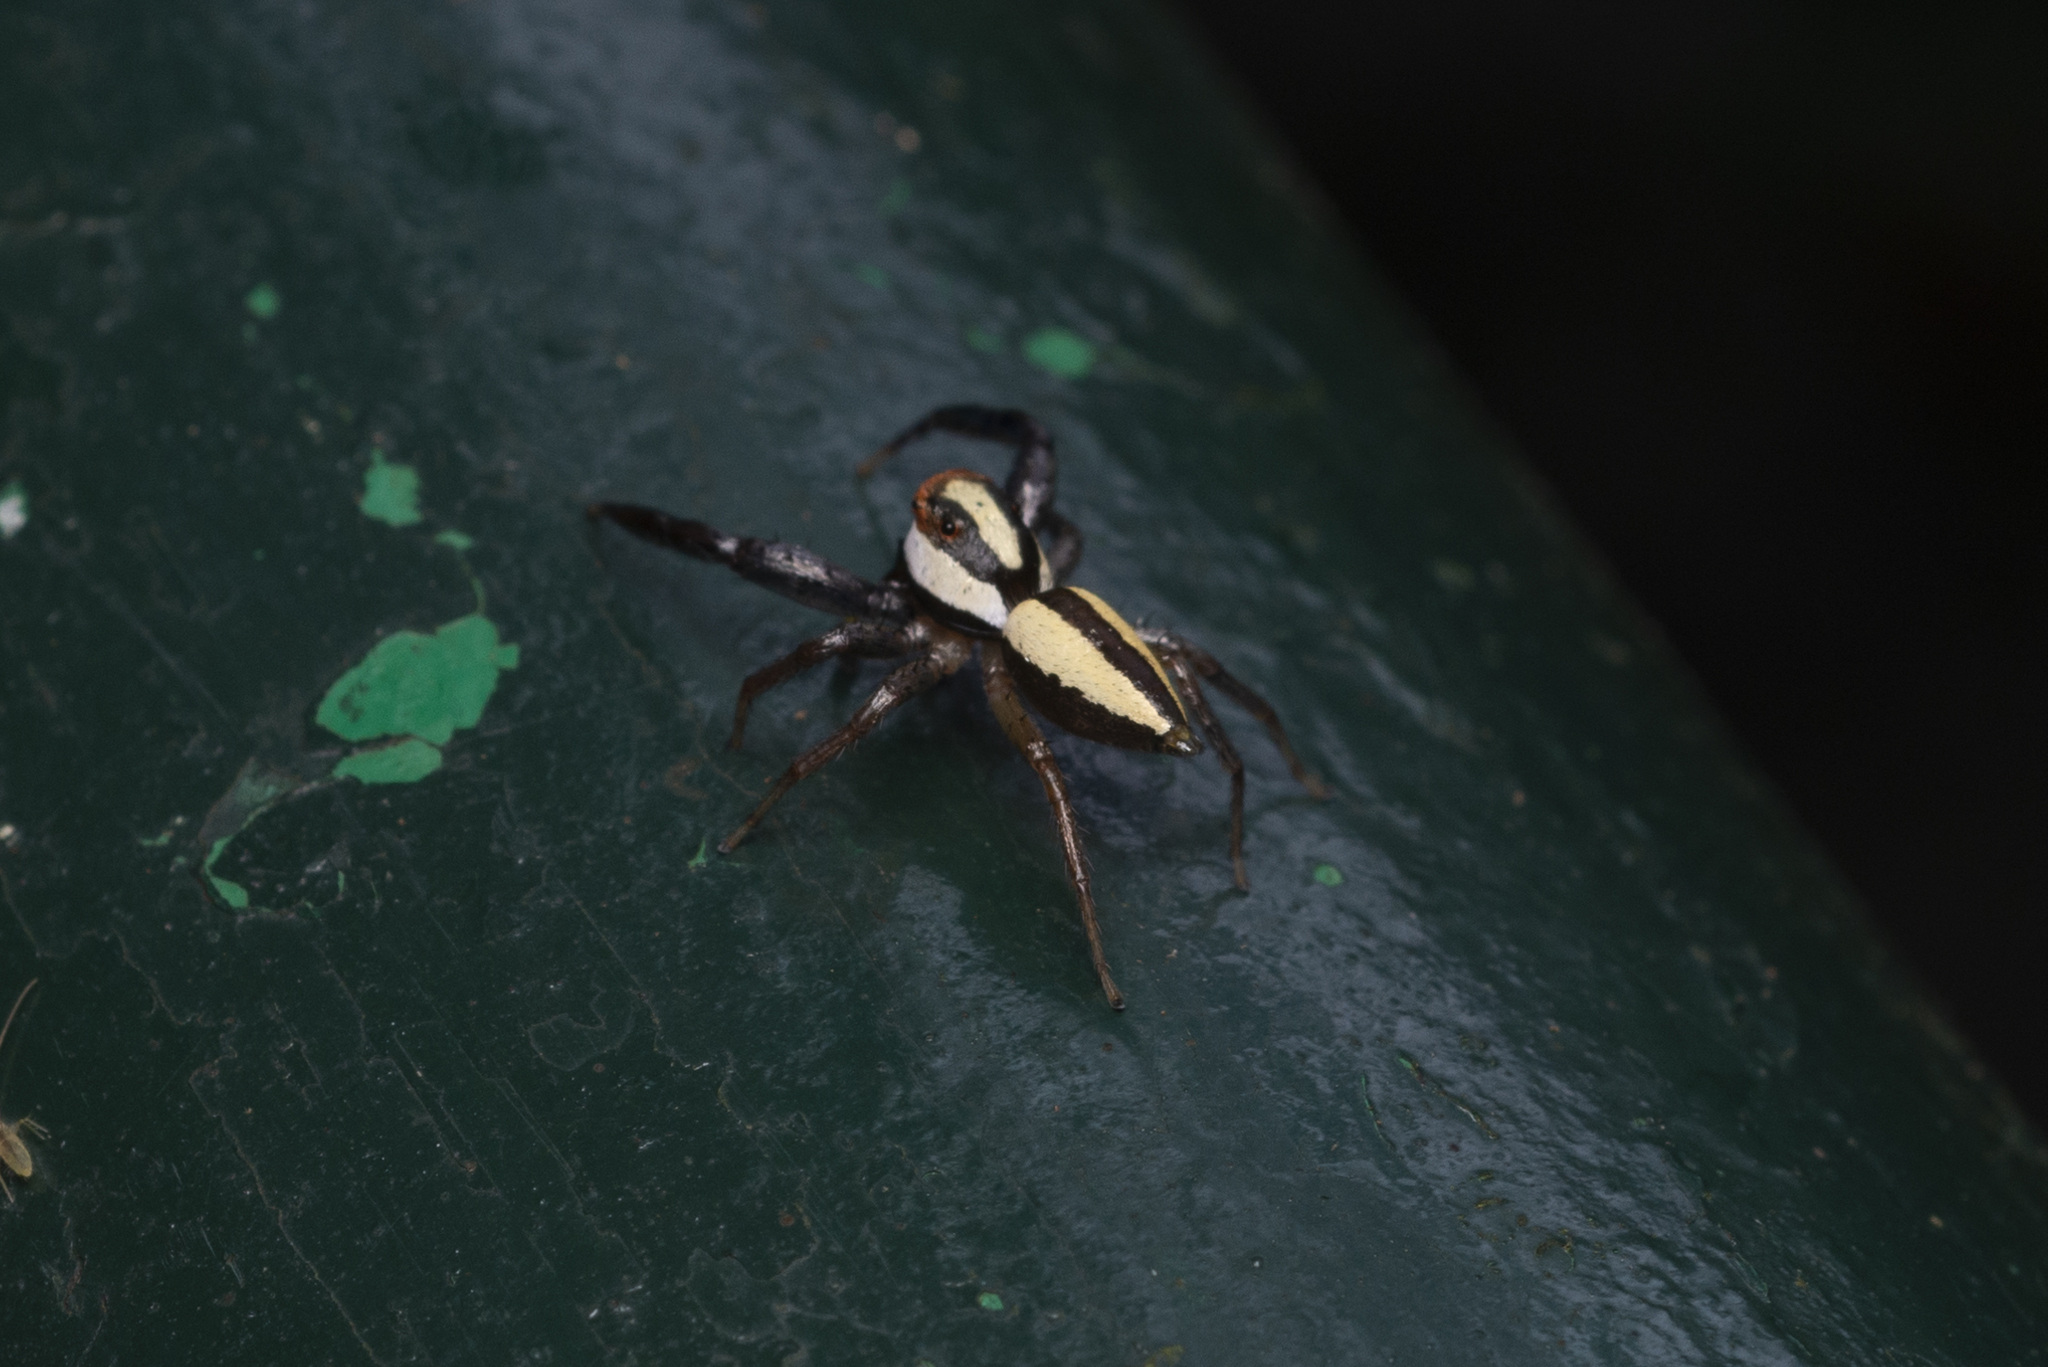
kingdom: Animalia
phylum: Arthropoda
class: Arachnida
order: Araneae
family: Salticidae
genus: Epocilla
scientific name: Epocilla blairei
